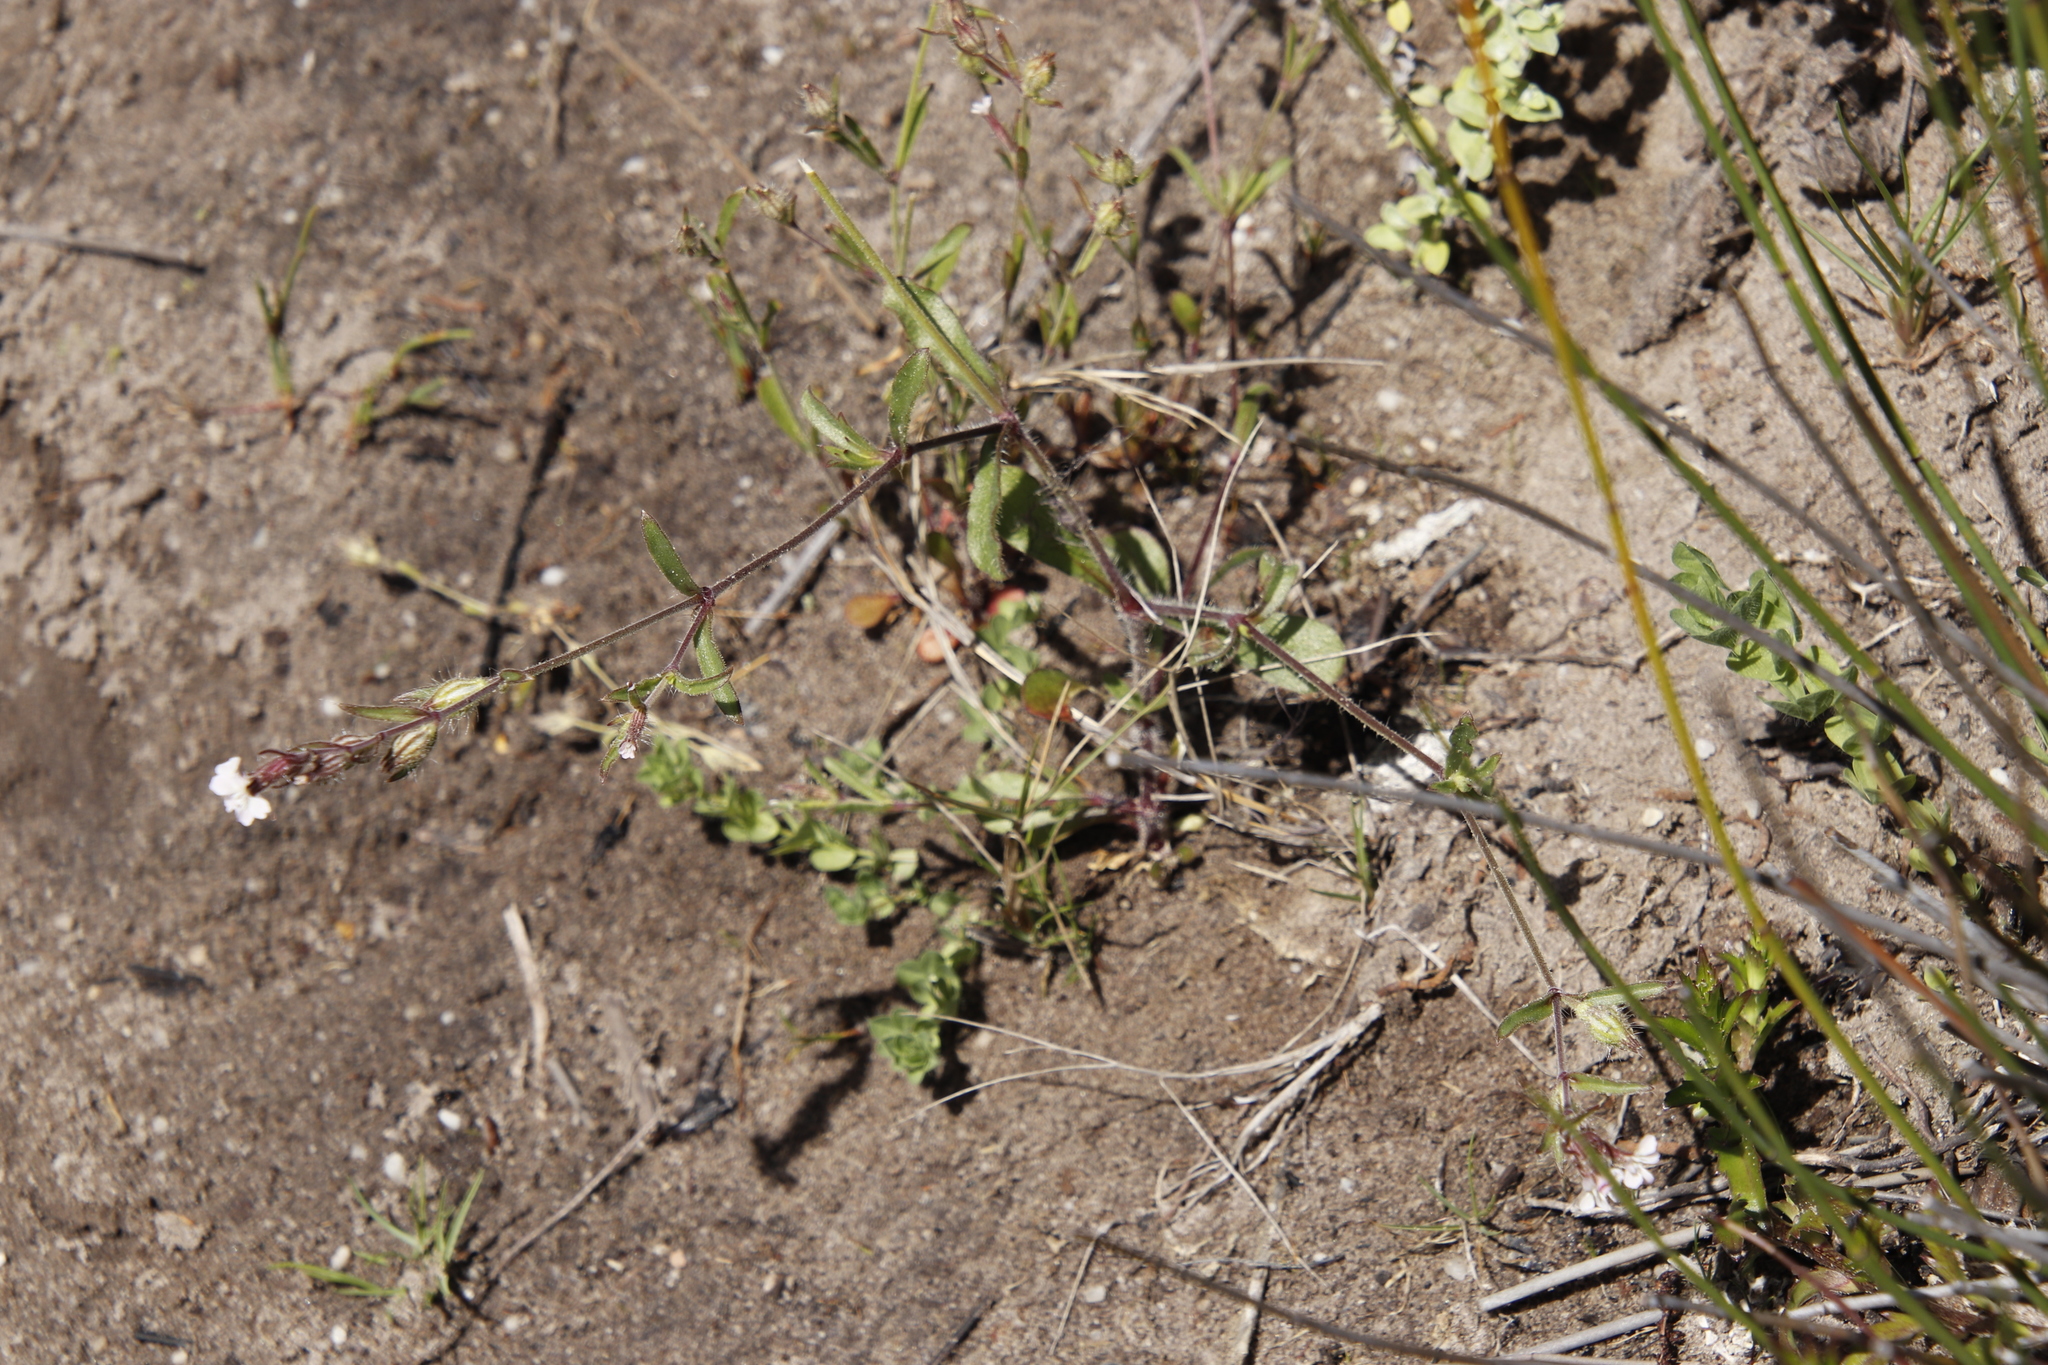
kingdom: Plantae
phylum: Tracheophyta
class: Magnoliopsida
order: Caryophyllales
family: Caryophyllaceae
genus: Silene
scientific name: Silene gallica
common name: Small-flowered catchfly
